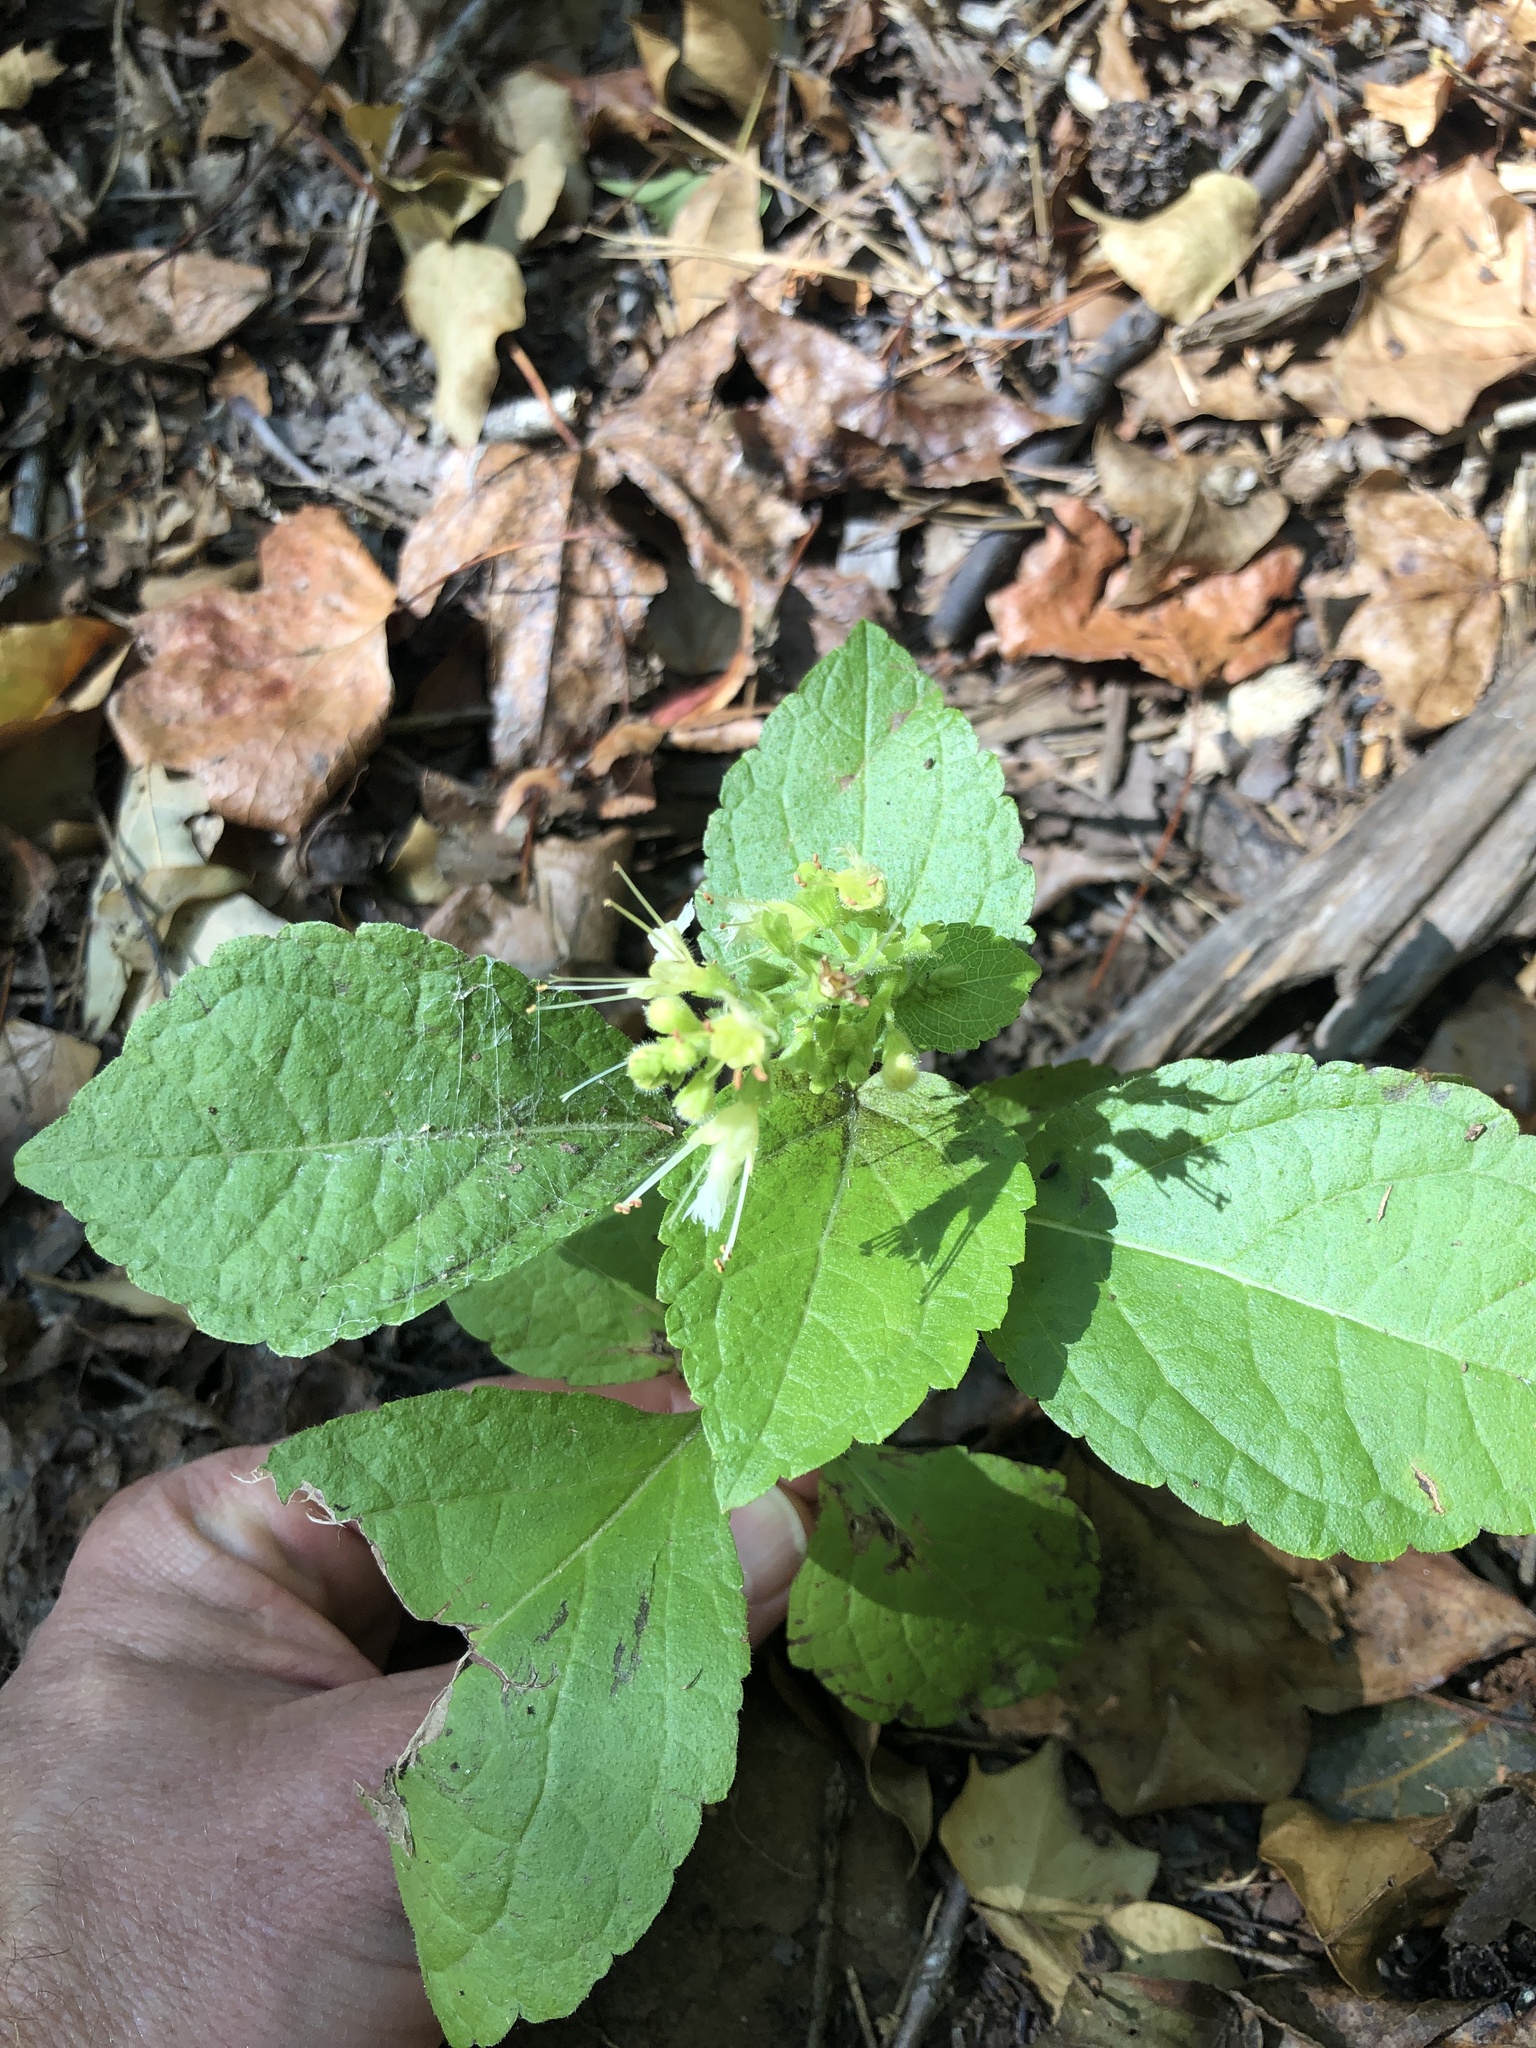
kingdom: Plantae
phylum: Tracheophyta
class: Magnoliopsida
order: Lamiales
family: Lamiaceae
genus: Collinsonia
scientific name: Collinsonia canadensis
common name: Northern horsebalm
